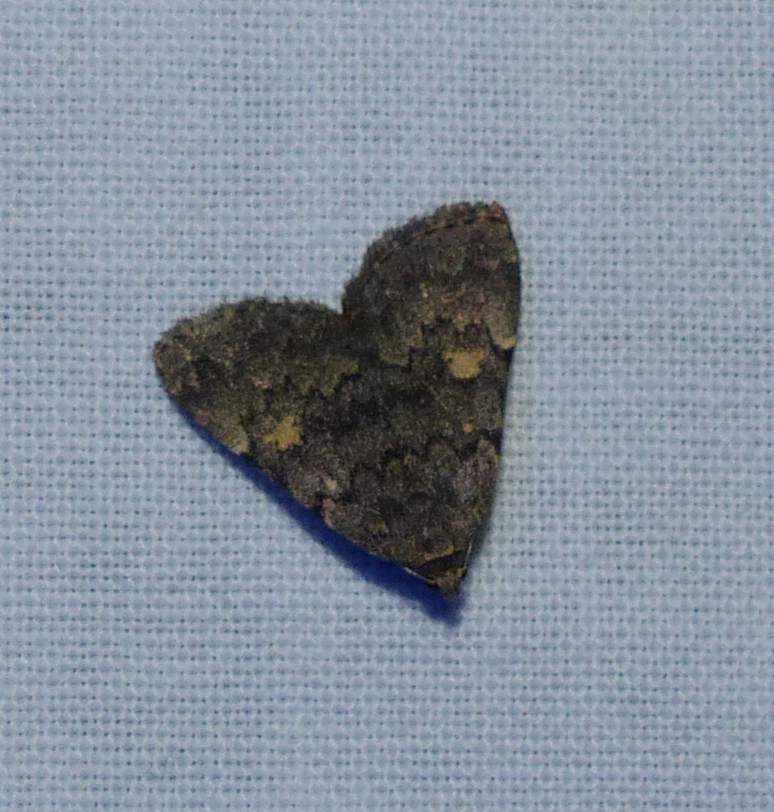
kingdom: Animalia
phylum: Arthropoda
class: Insecta
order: Lepidoptera
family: Erebidae
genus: Idia
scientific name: Idia aemula
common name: Common idia moth
